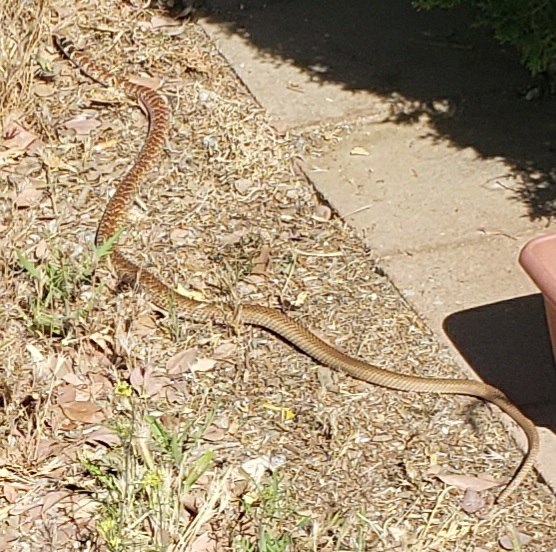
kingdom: Animalia
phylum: Chordata
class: Squamata
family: Colubridae
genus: Masticophis
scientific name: Masticophis flagellum
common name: Coachwhip
